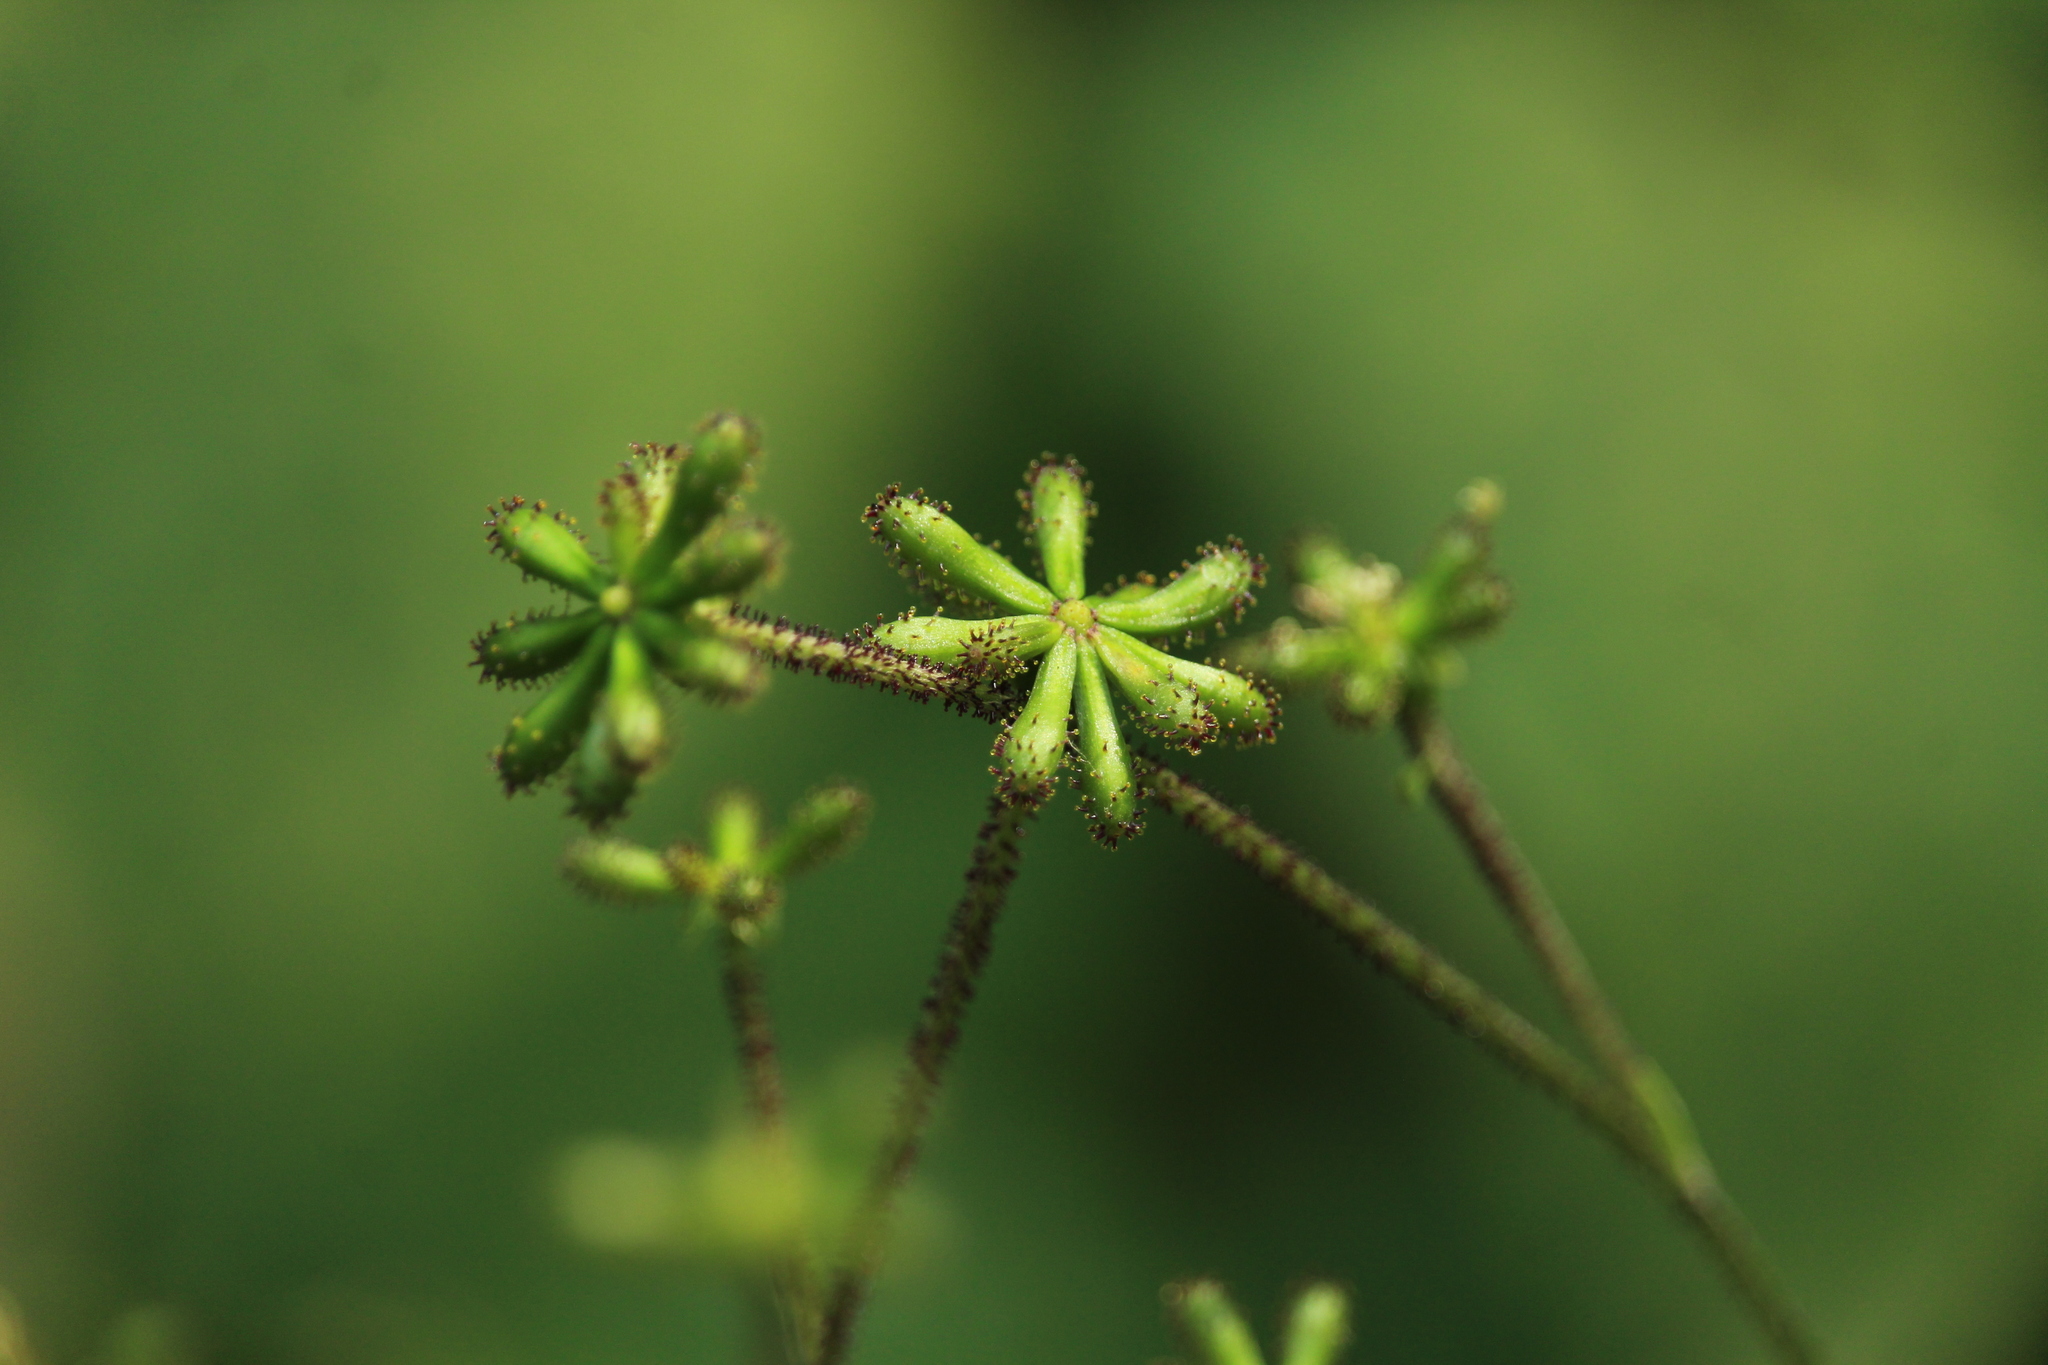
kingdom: Plantae
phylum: Tracheophyta
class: Magnoliopsida
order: Asterales
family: Asteraceae
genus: Adenocaulon
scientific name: Adenocaulon himalaicum
